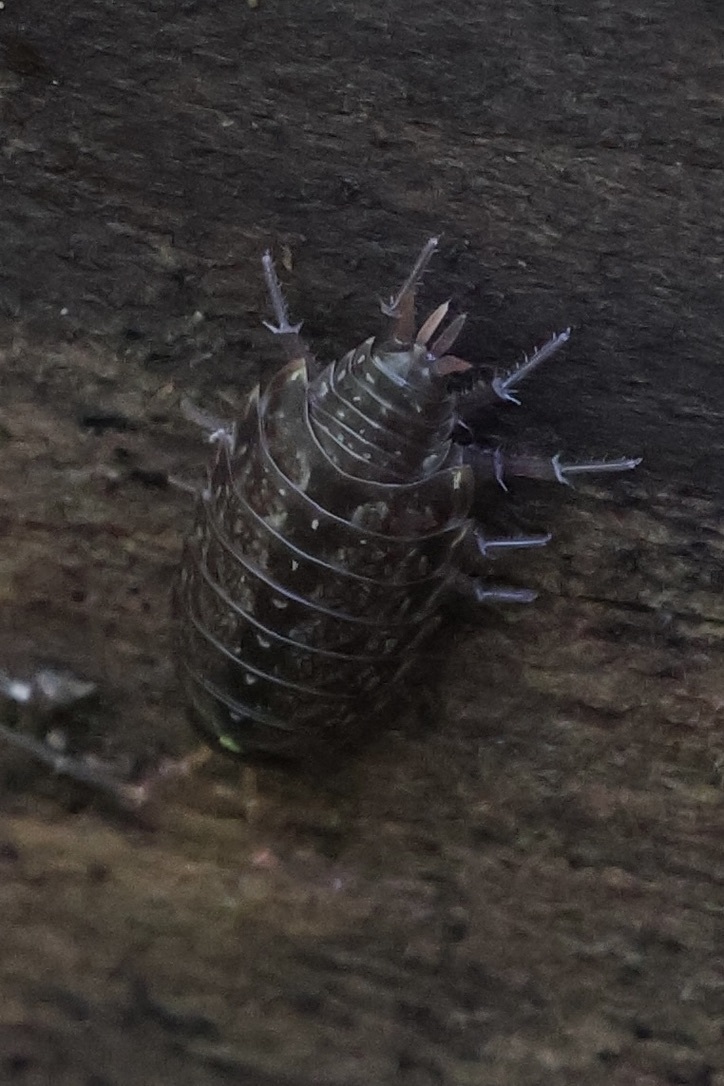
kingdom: Animalia
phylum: Arthropoda
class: Malacostraca
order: Isopoda
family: Philosciidae
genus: Philoscia
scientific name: Philoscia muscorum
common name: Common striped woodlouse
